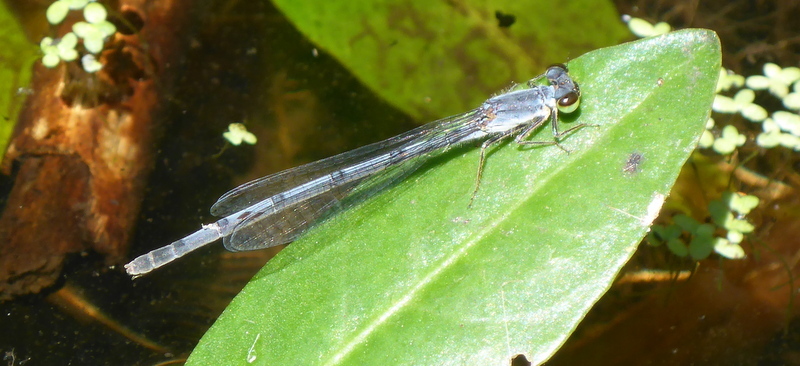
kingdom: Animalia
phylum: Arthropoda
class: Insecta
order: Odonata
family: Coenagrionidae
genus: Ischnura
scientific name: Ischnura posita
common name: Fragile forktail
